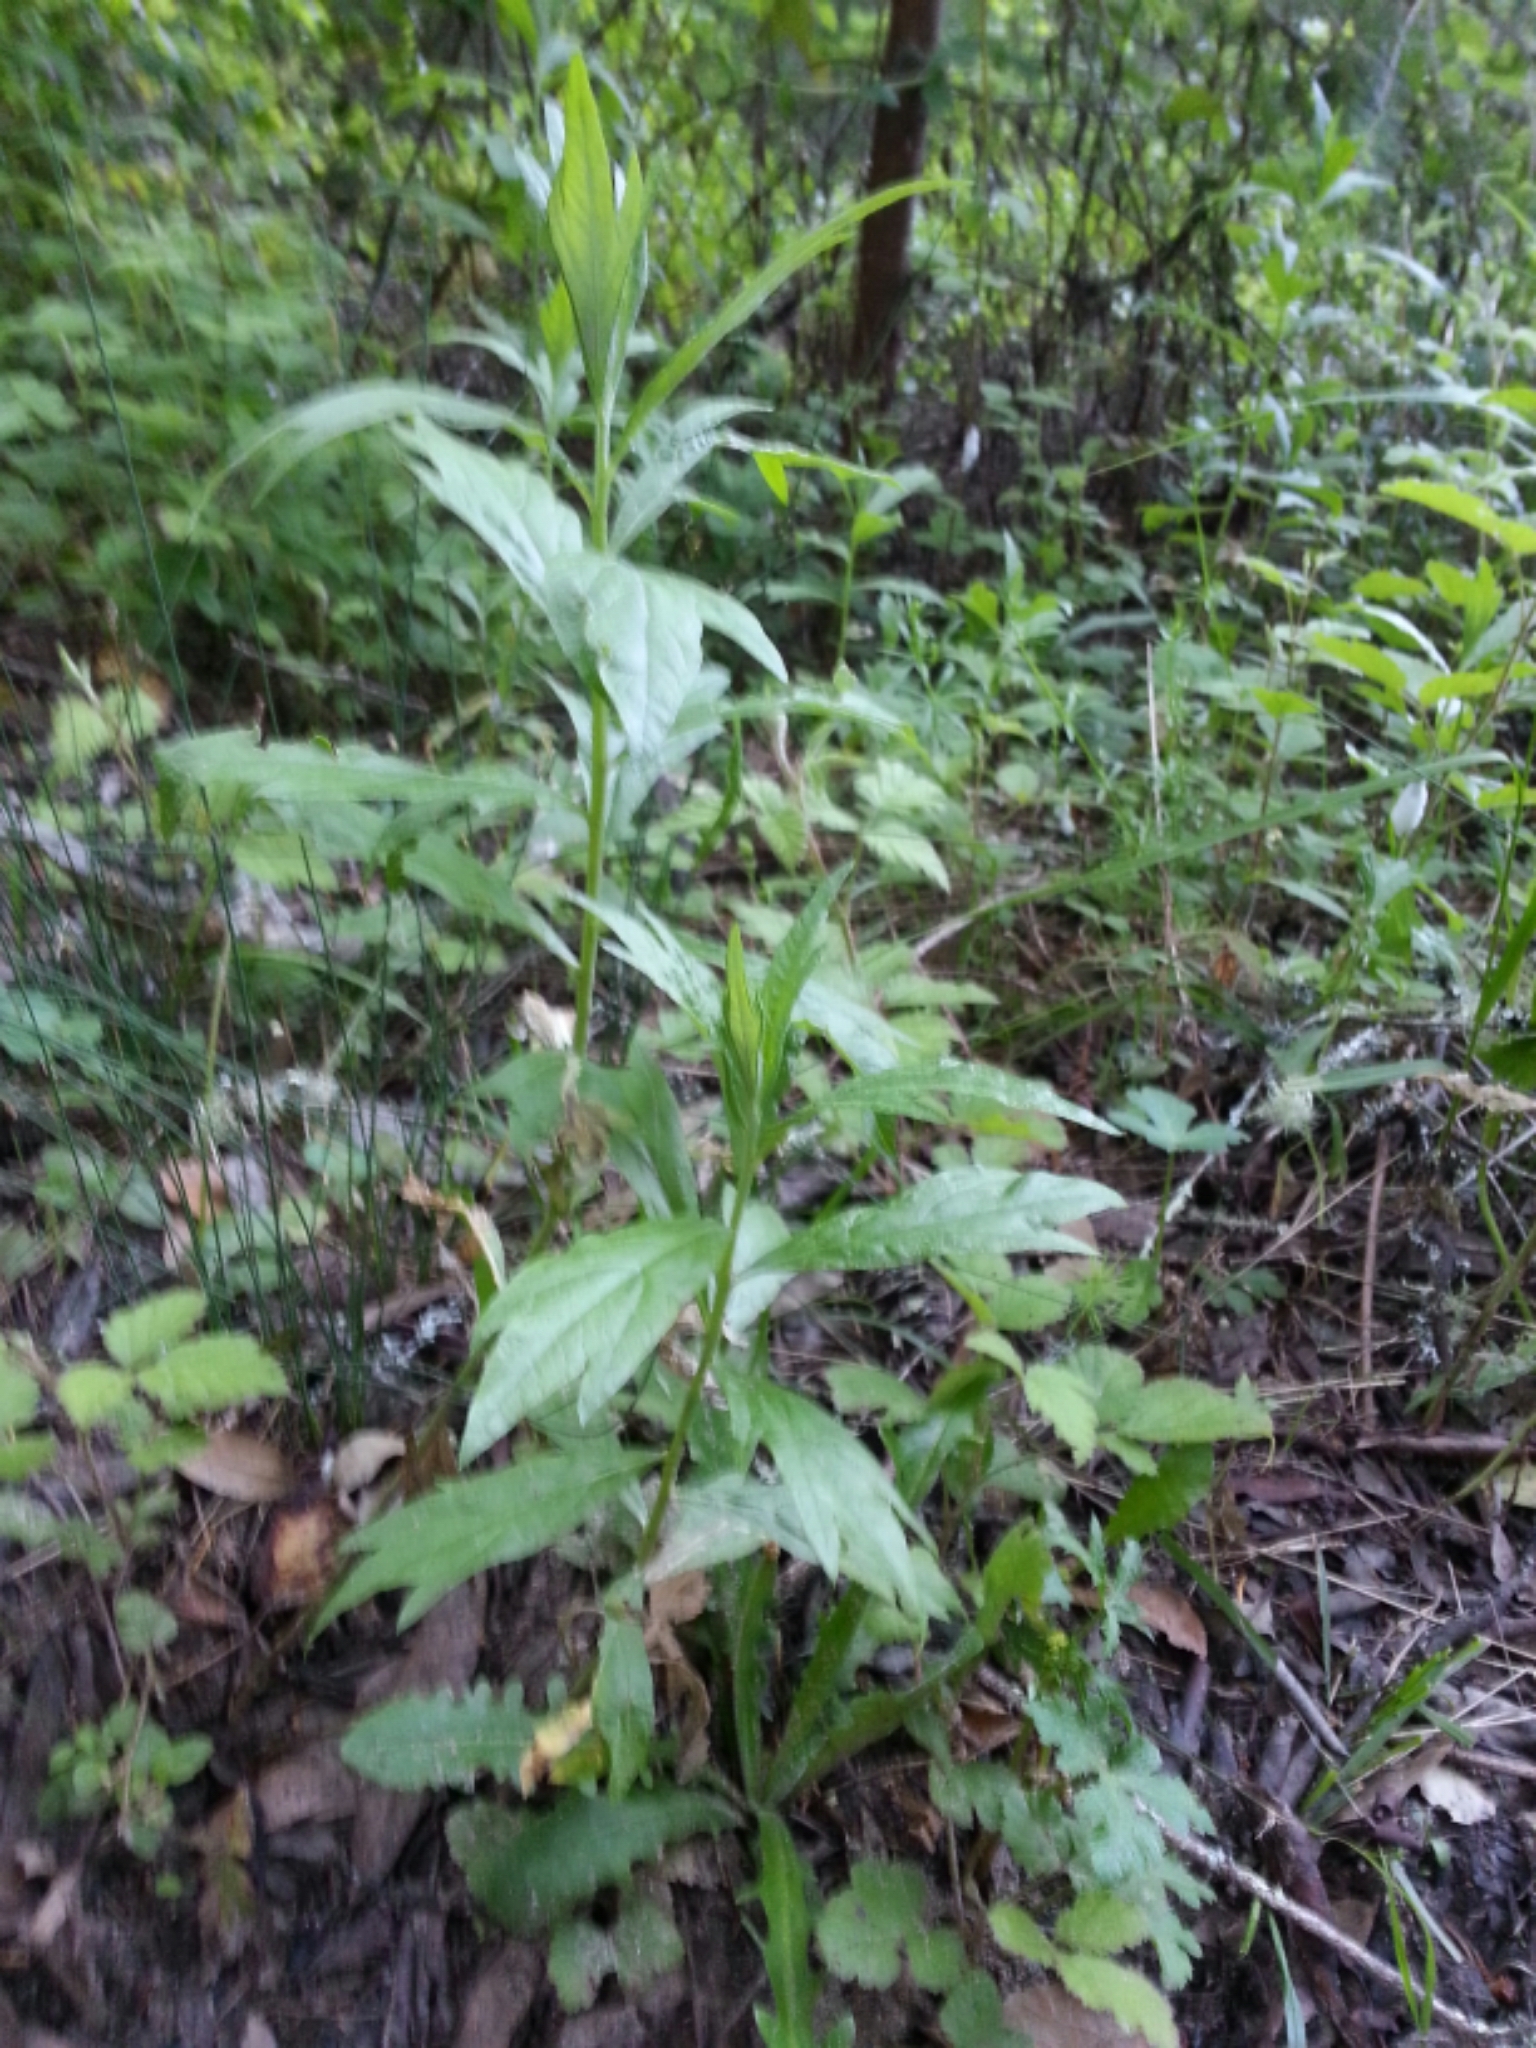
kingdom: Plantae
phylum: Tracheophyta
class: Magnoliopsida
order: Asterales
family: Asteraceae
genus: Artemisia
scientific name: Artemisia douglasiana
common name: Northwest mugwort
